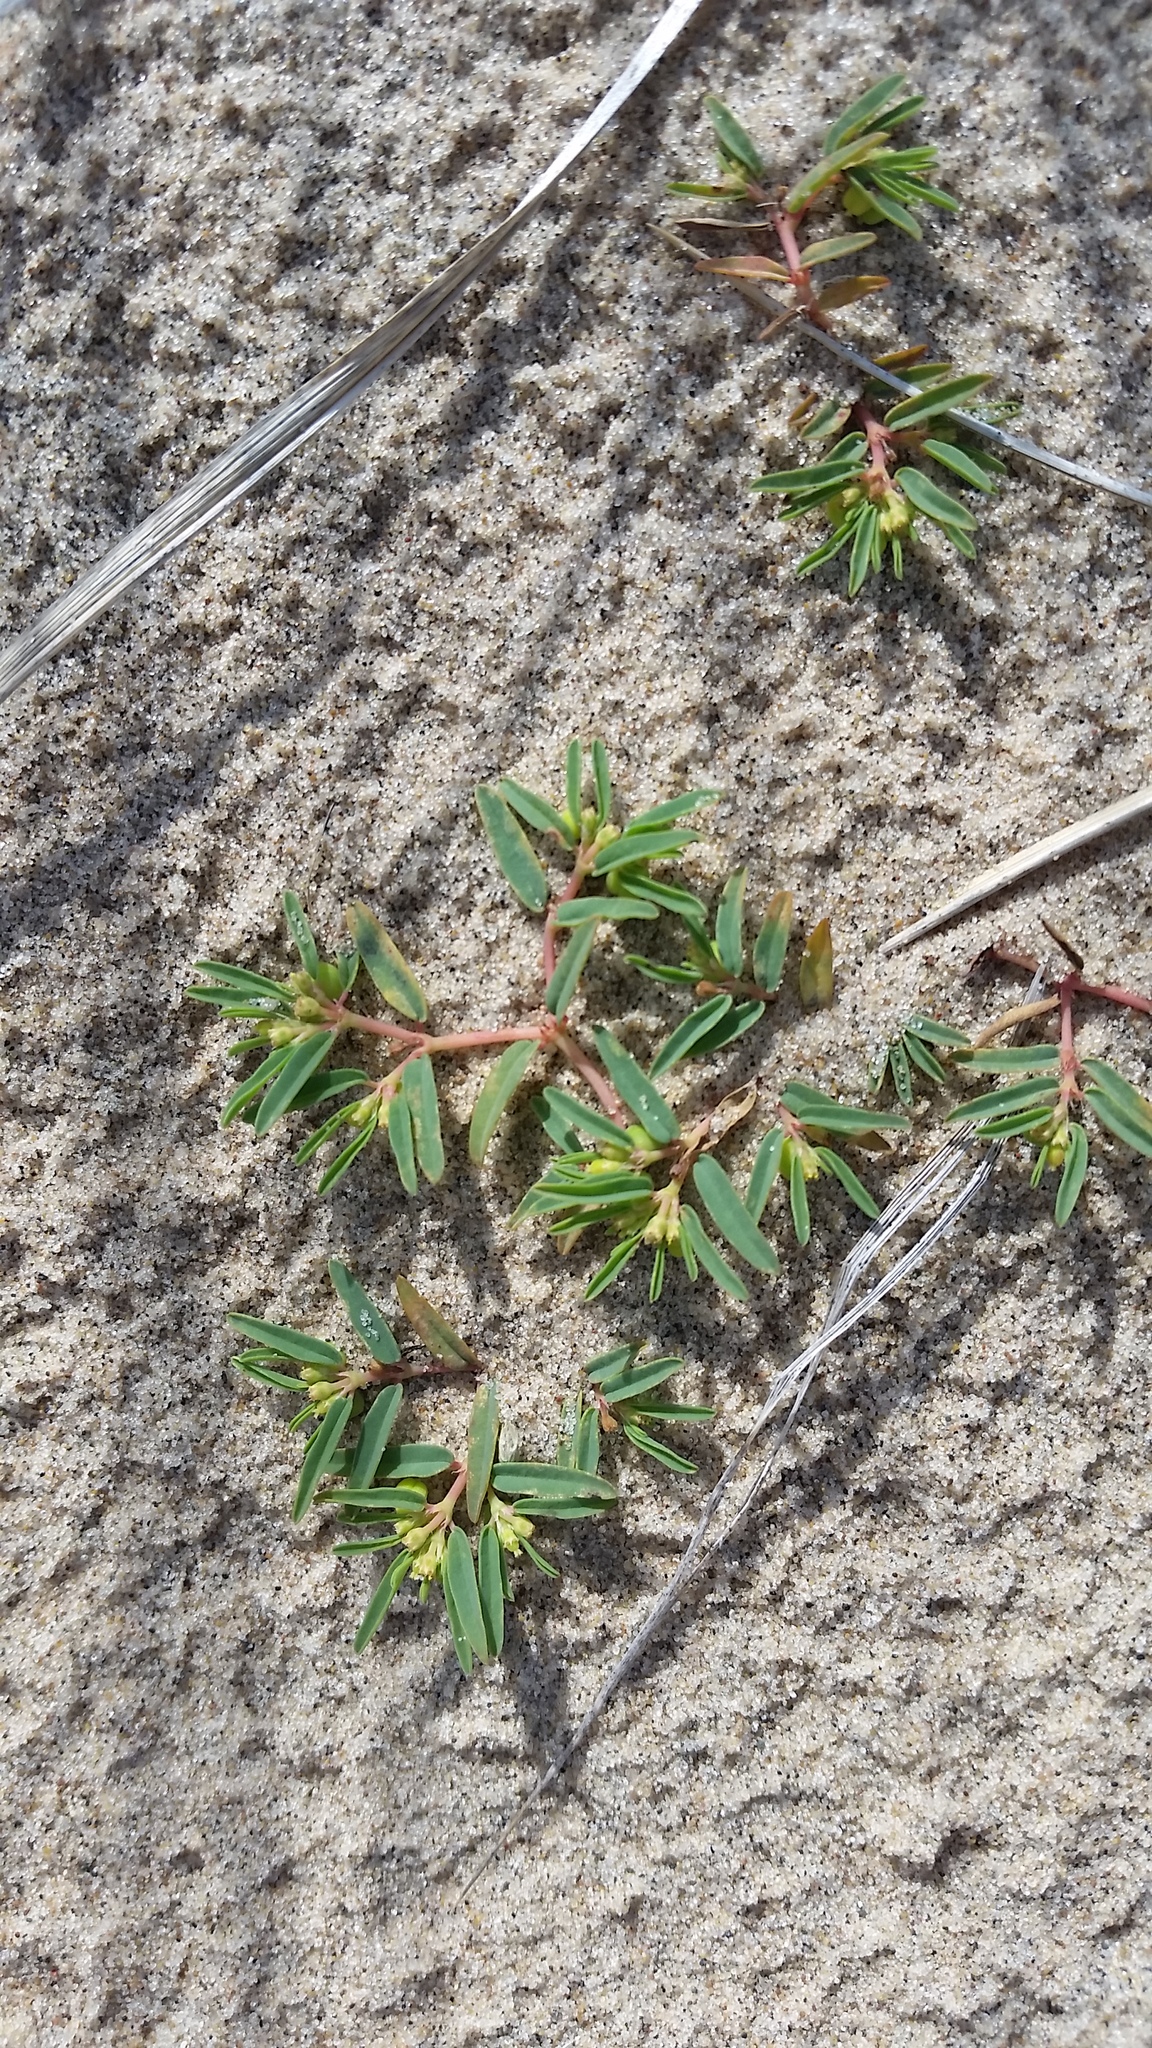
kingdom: Plantae
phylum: Tracheophyta
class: Magnoliopsida
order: Malpighiales
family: Euphorbiaceae
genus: Euphorbia
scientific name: Euphorbia polygonifolia
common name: Knotweed spurge
